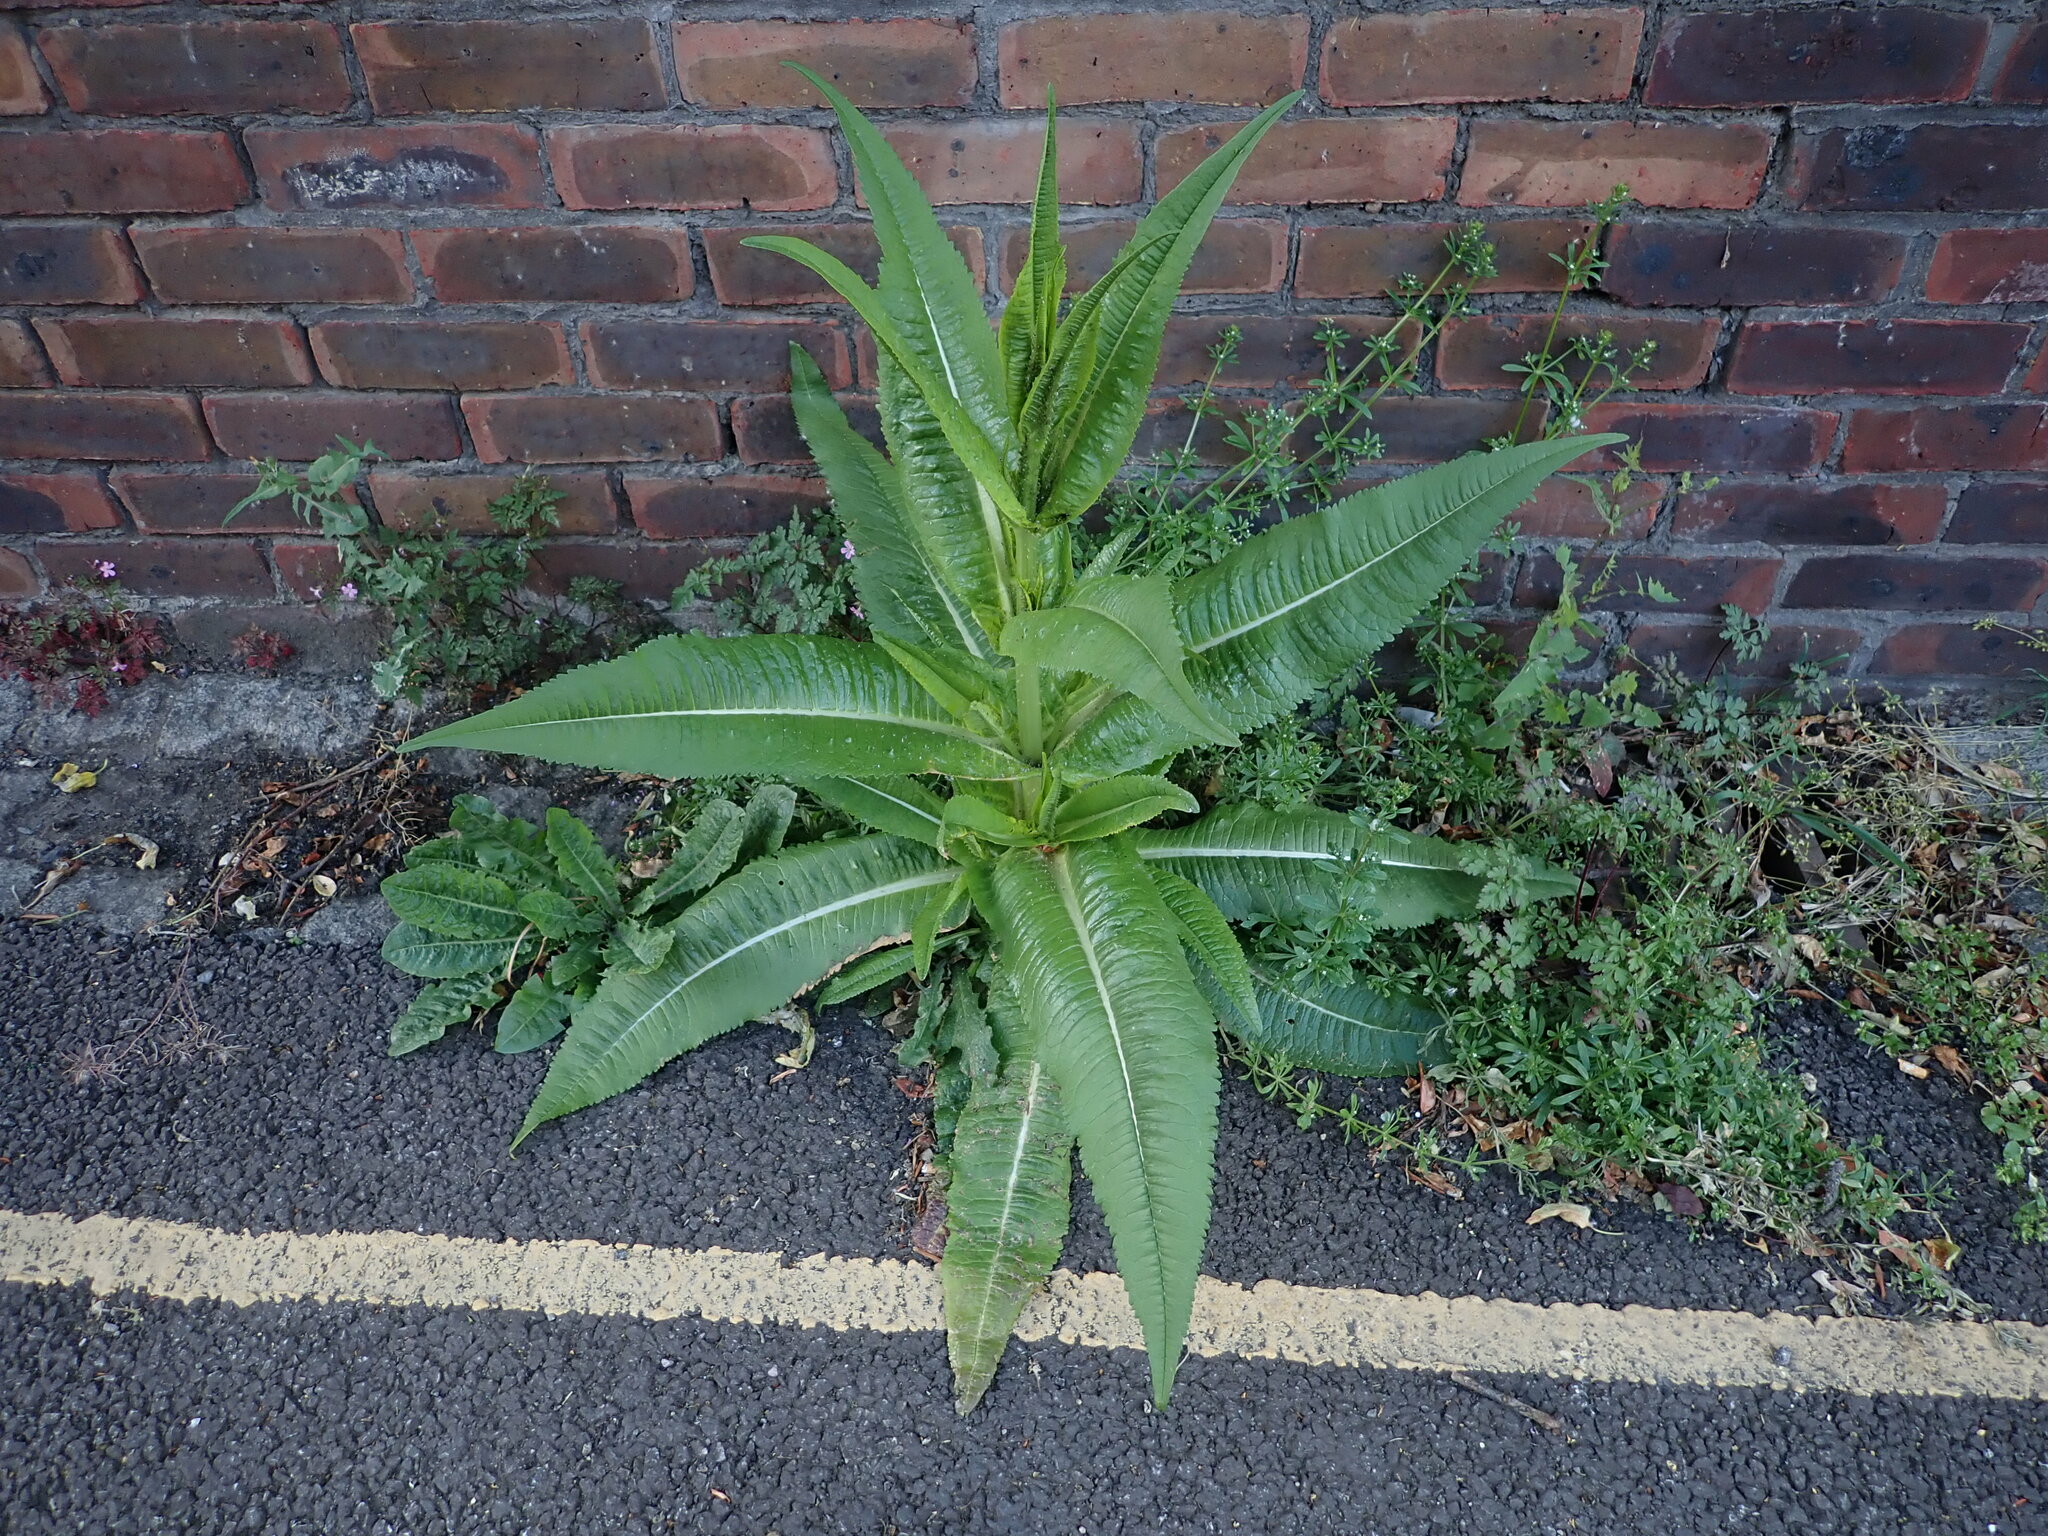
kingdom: Plantae
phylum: Tracheophyta
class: Magnoliopsida
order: Dipsacales
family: Caprifoliaceae
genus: Dipsacus
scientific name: Dipsacus fullonum
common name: Teasel
